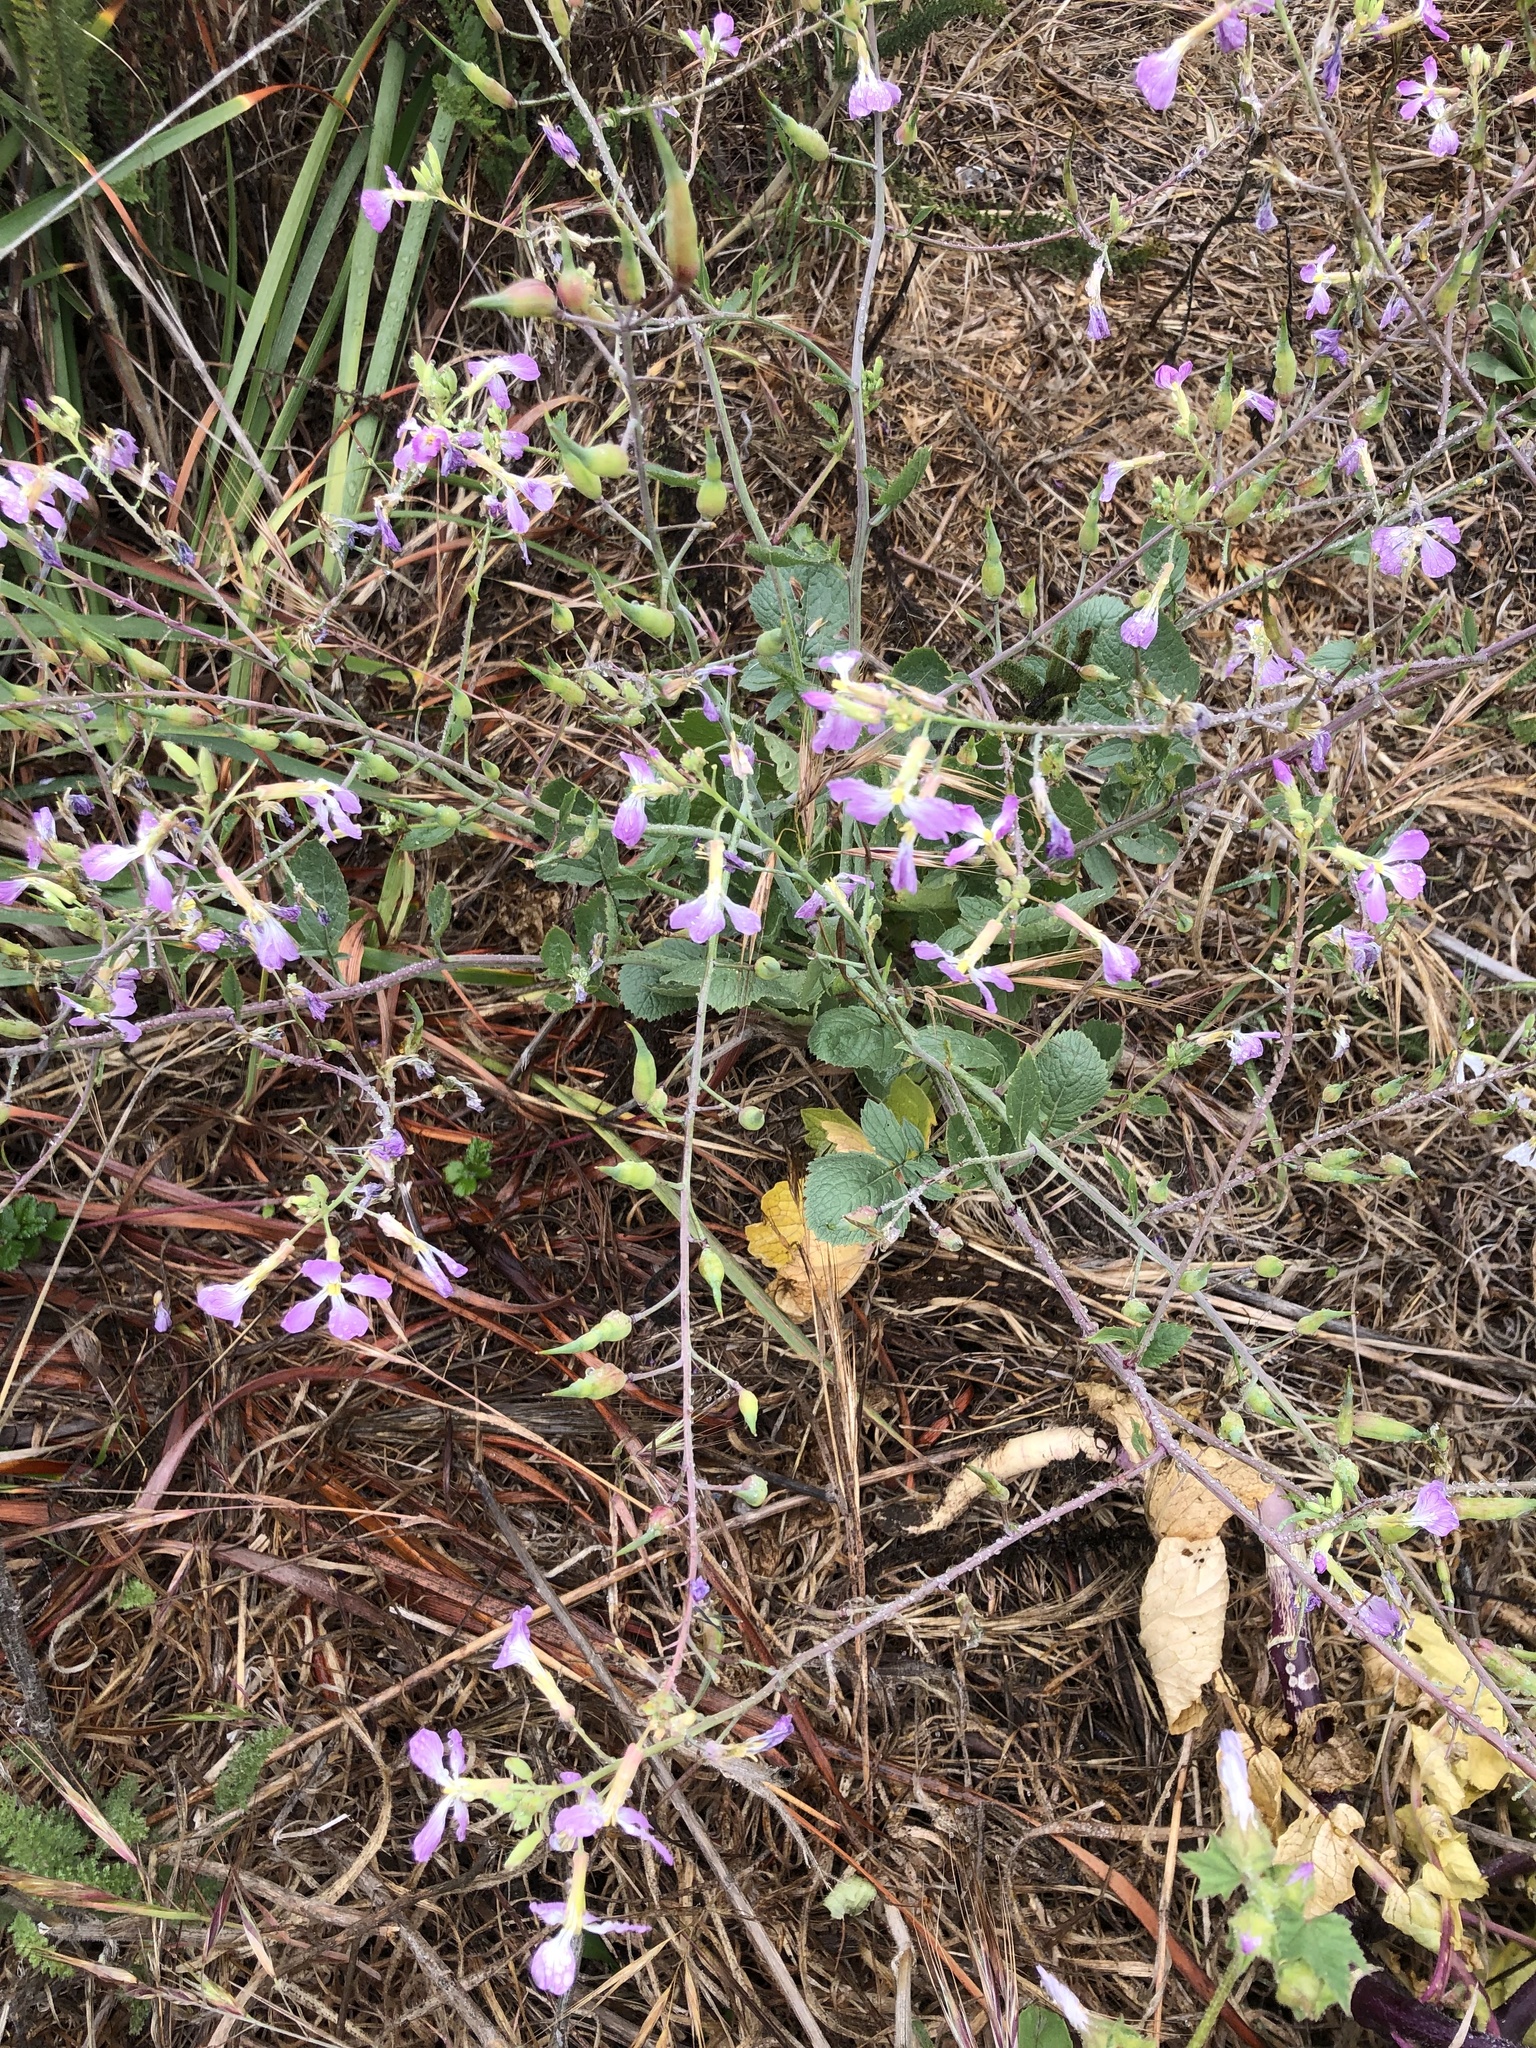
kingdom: Plantae
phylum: Tracheophyta
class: Magnoliopsida
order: Brassicales
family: Brassicaceae
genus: Raphanus
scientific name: Raphanus sativus
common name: Cultivated radish
